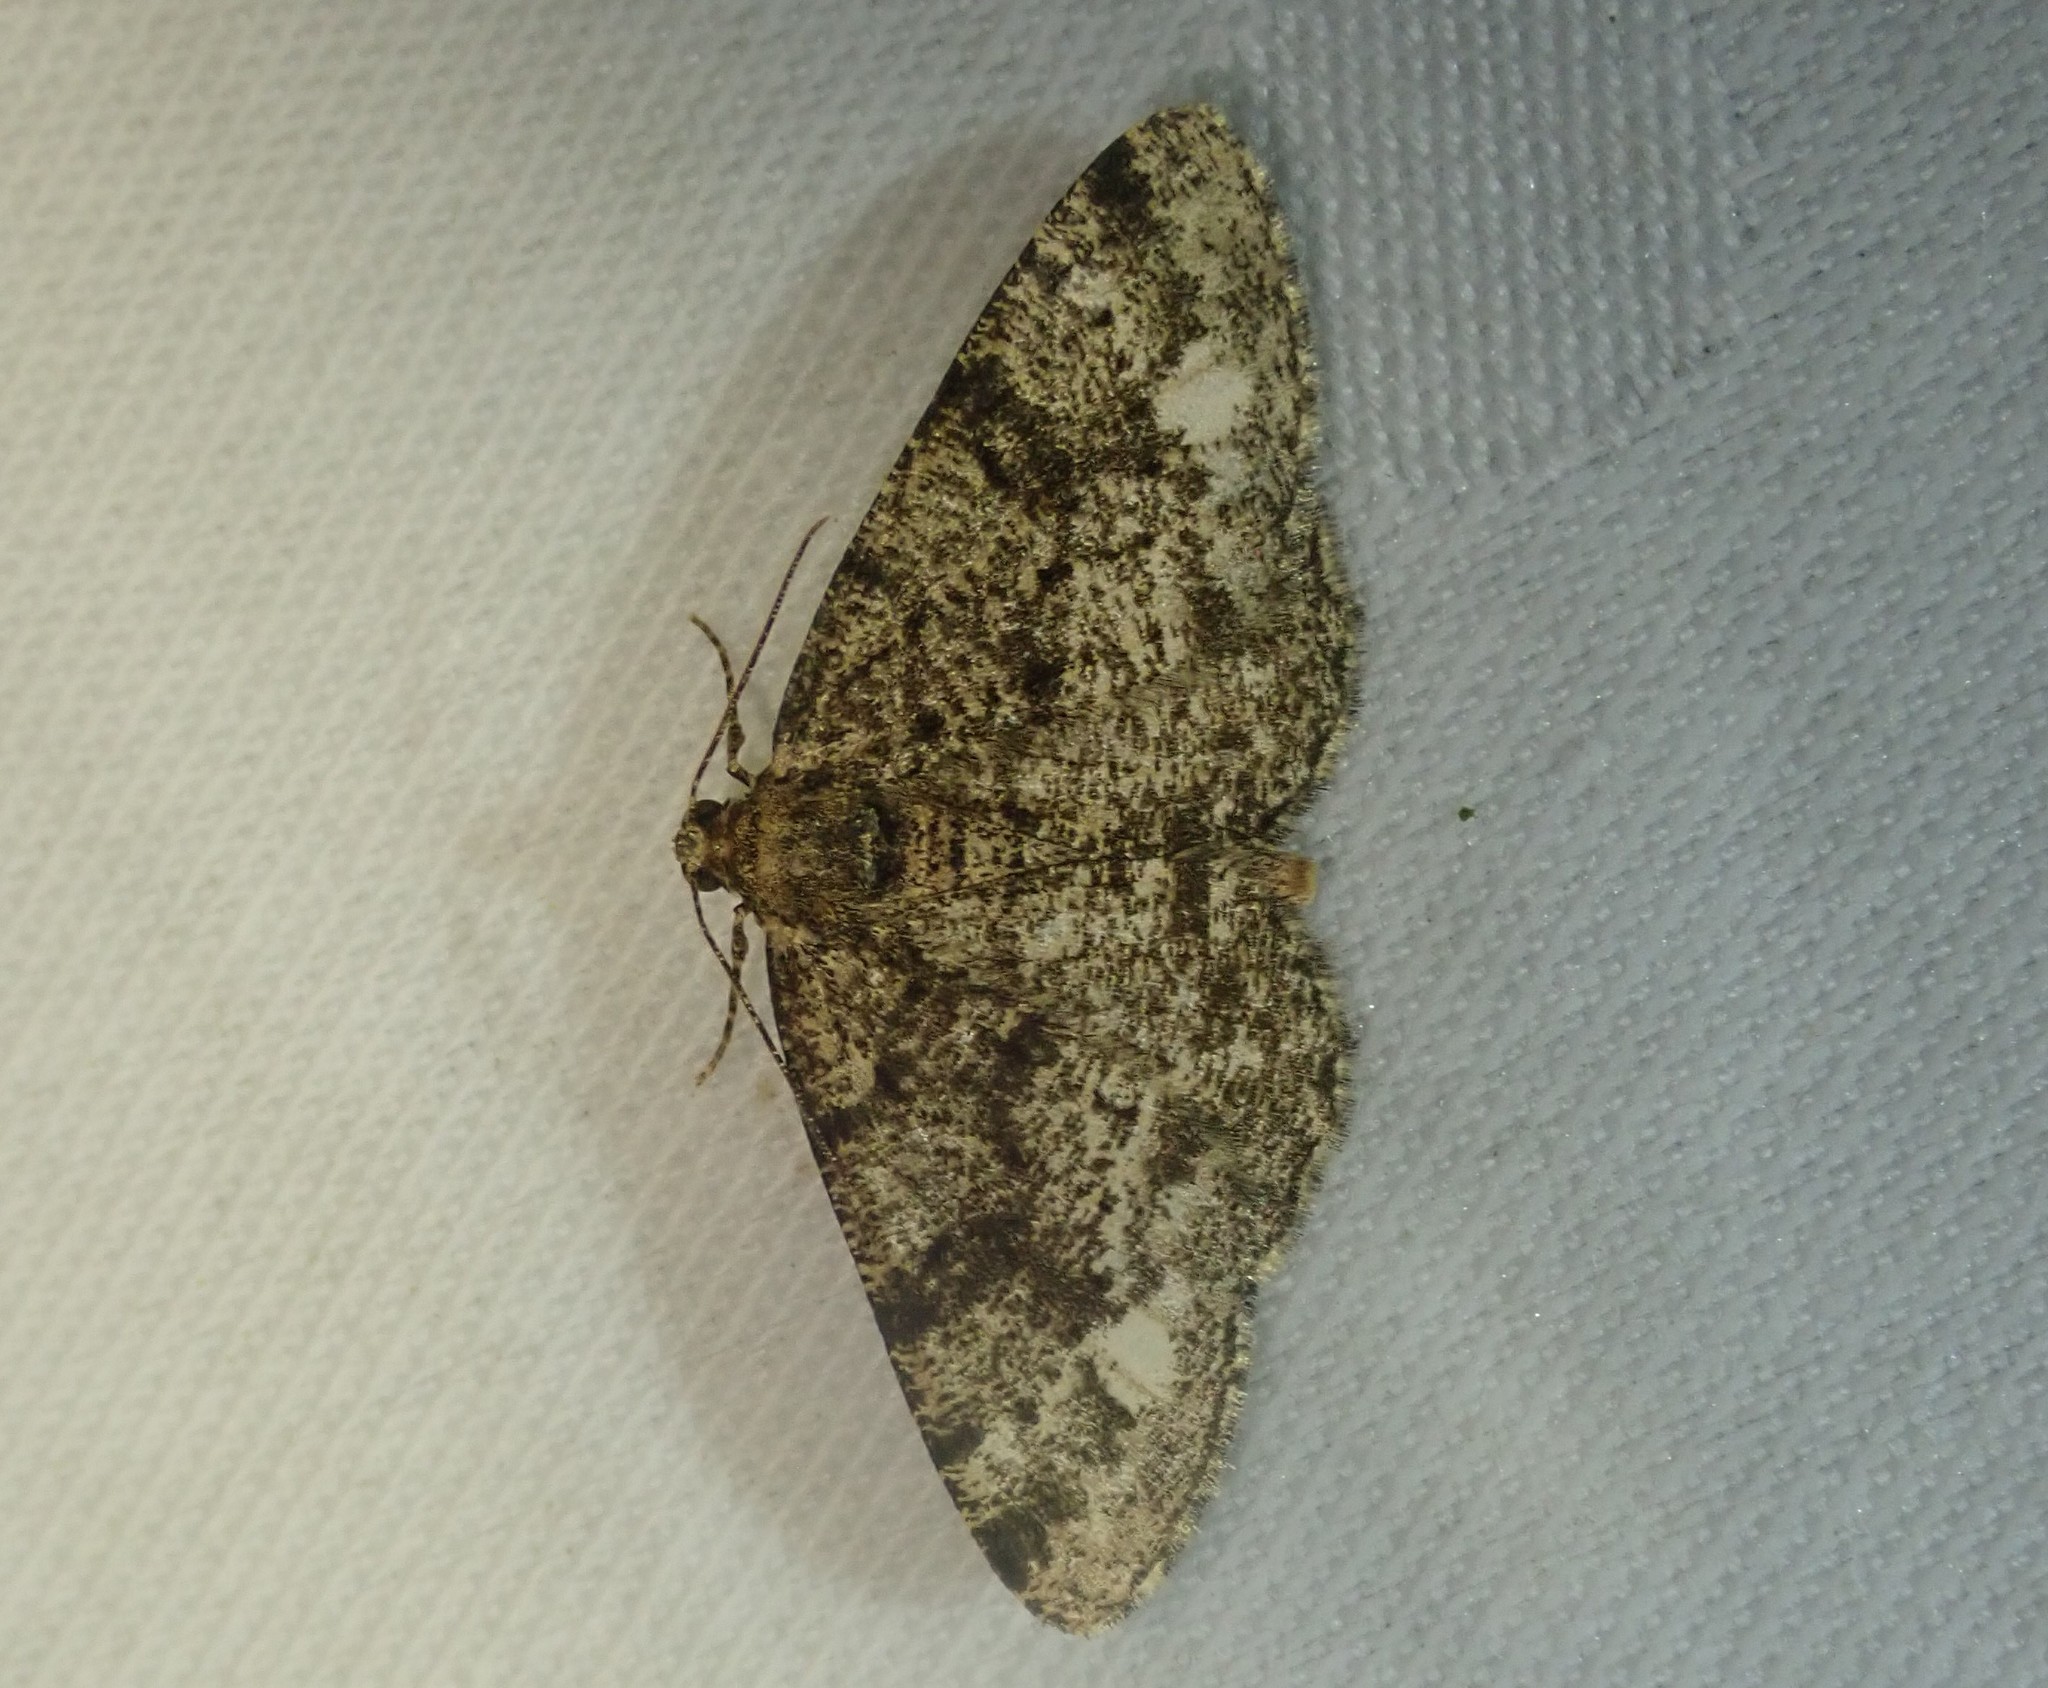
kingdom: Animalia
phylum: Arthropoda
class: Insecta
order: Lepidoptera
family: Geometridae
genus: Parectropis
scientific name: Parectropis similaria
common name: Brindled white-spot
